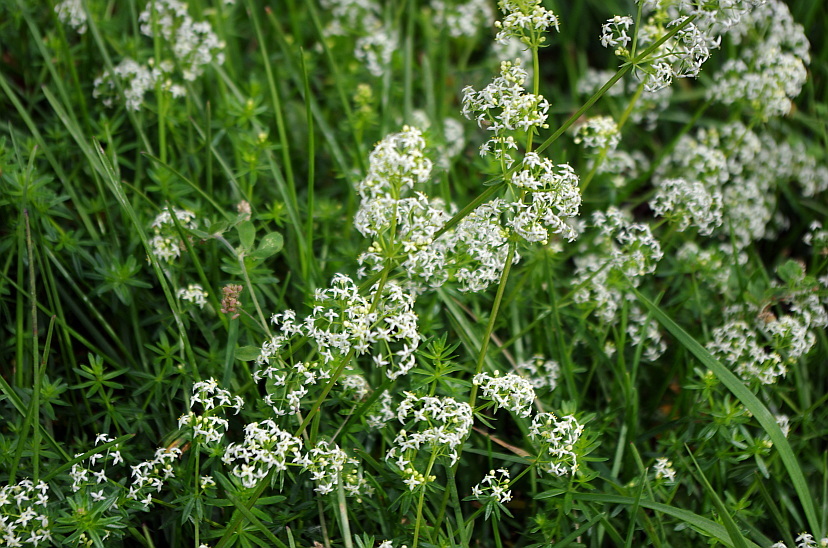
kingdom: Plantae
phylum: Tracheophyta
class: Magnoliopsida
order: Gentianales
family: Rubiaceae
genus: Galium
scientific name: Galium mollugo
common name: Hedge bedstraw
